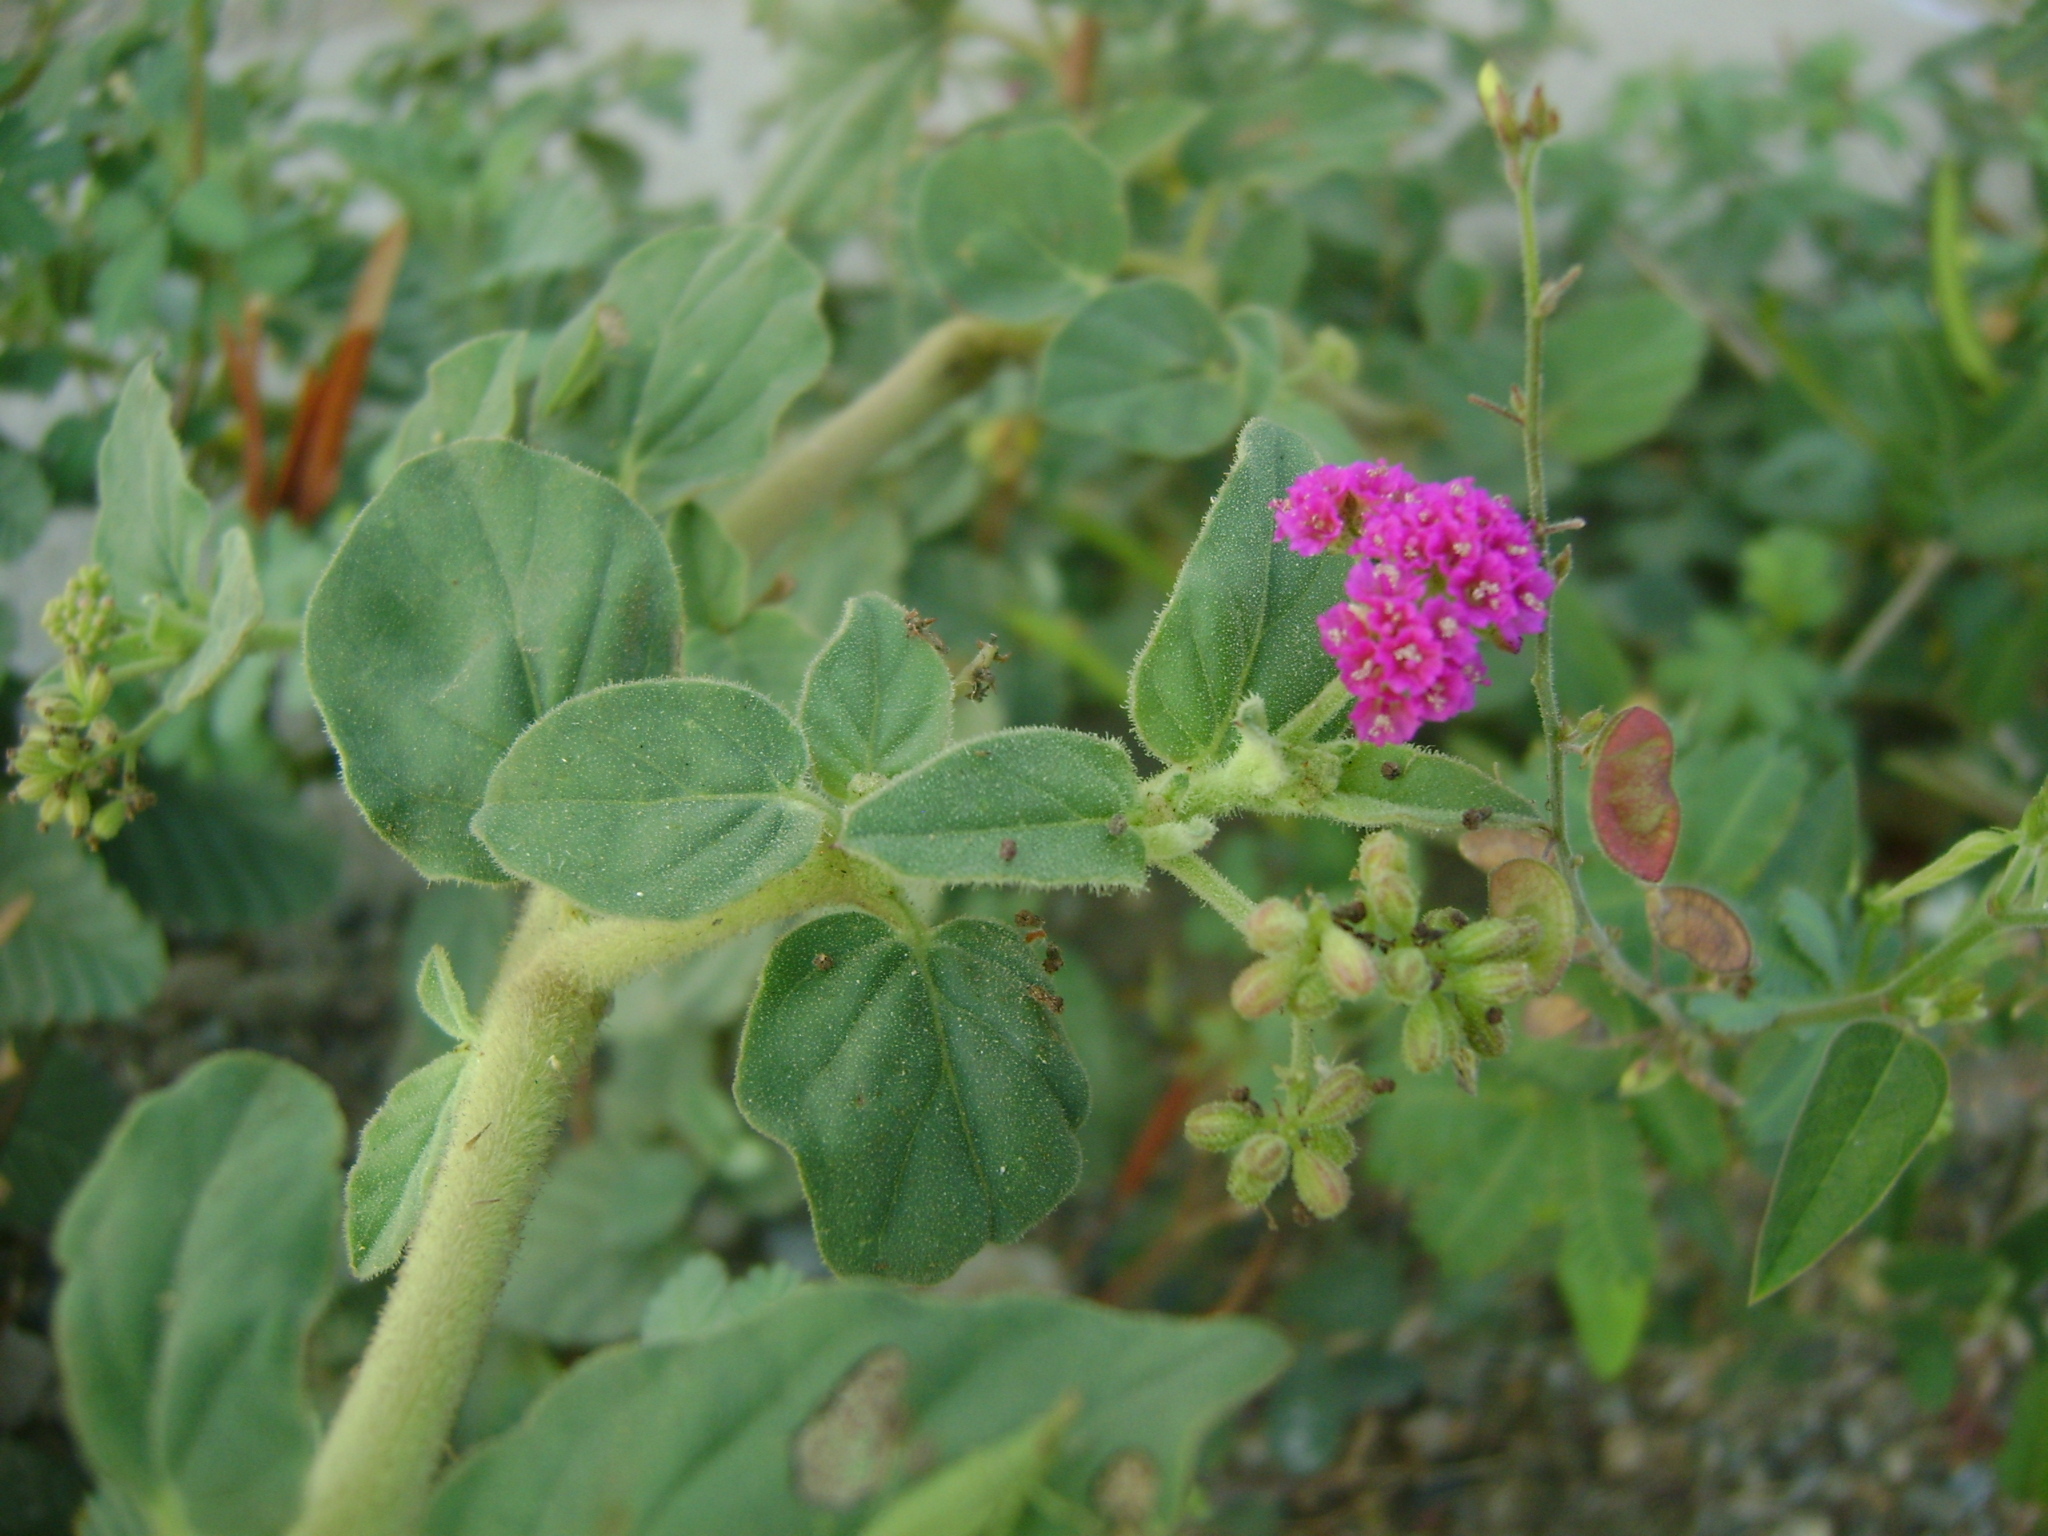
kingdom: Plantae
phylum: Tracheophyta
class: Magnoliopsida
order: Caryophyllales
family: Nyctaginaceae
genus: Boerhavia
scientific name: Boerhavia coccinea
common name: Scarlet spiderling
